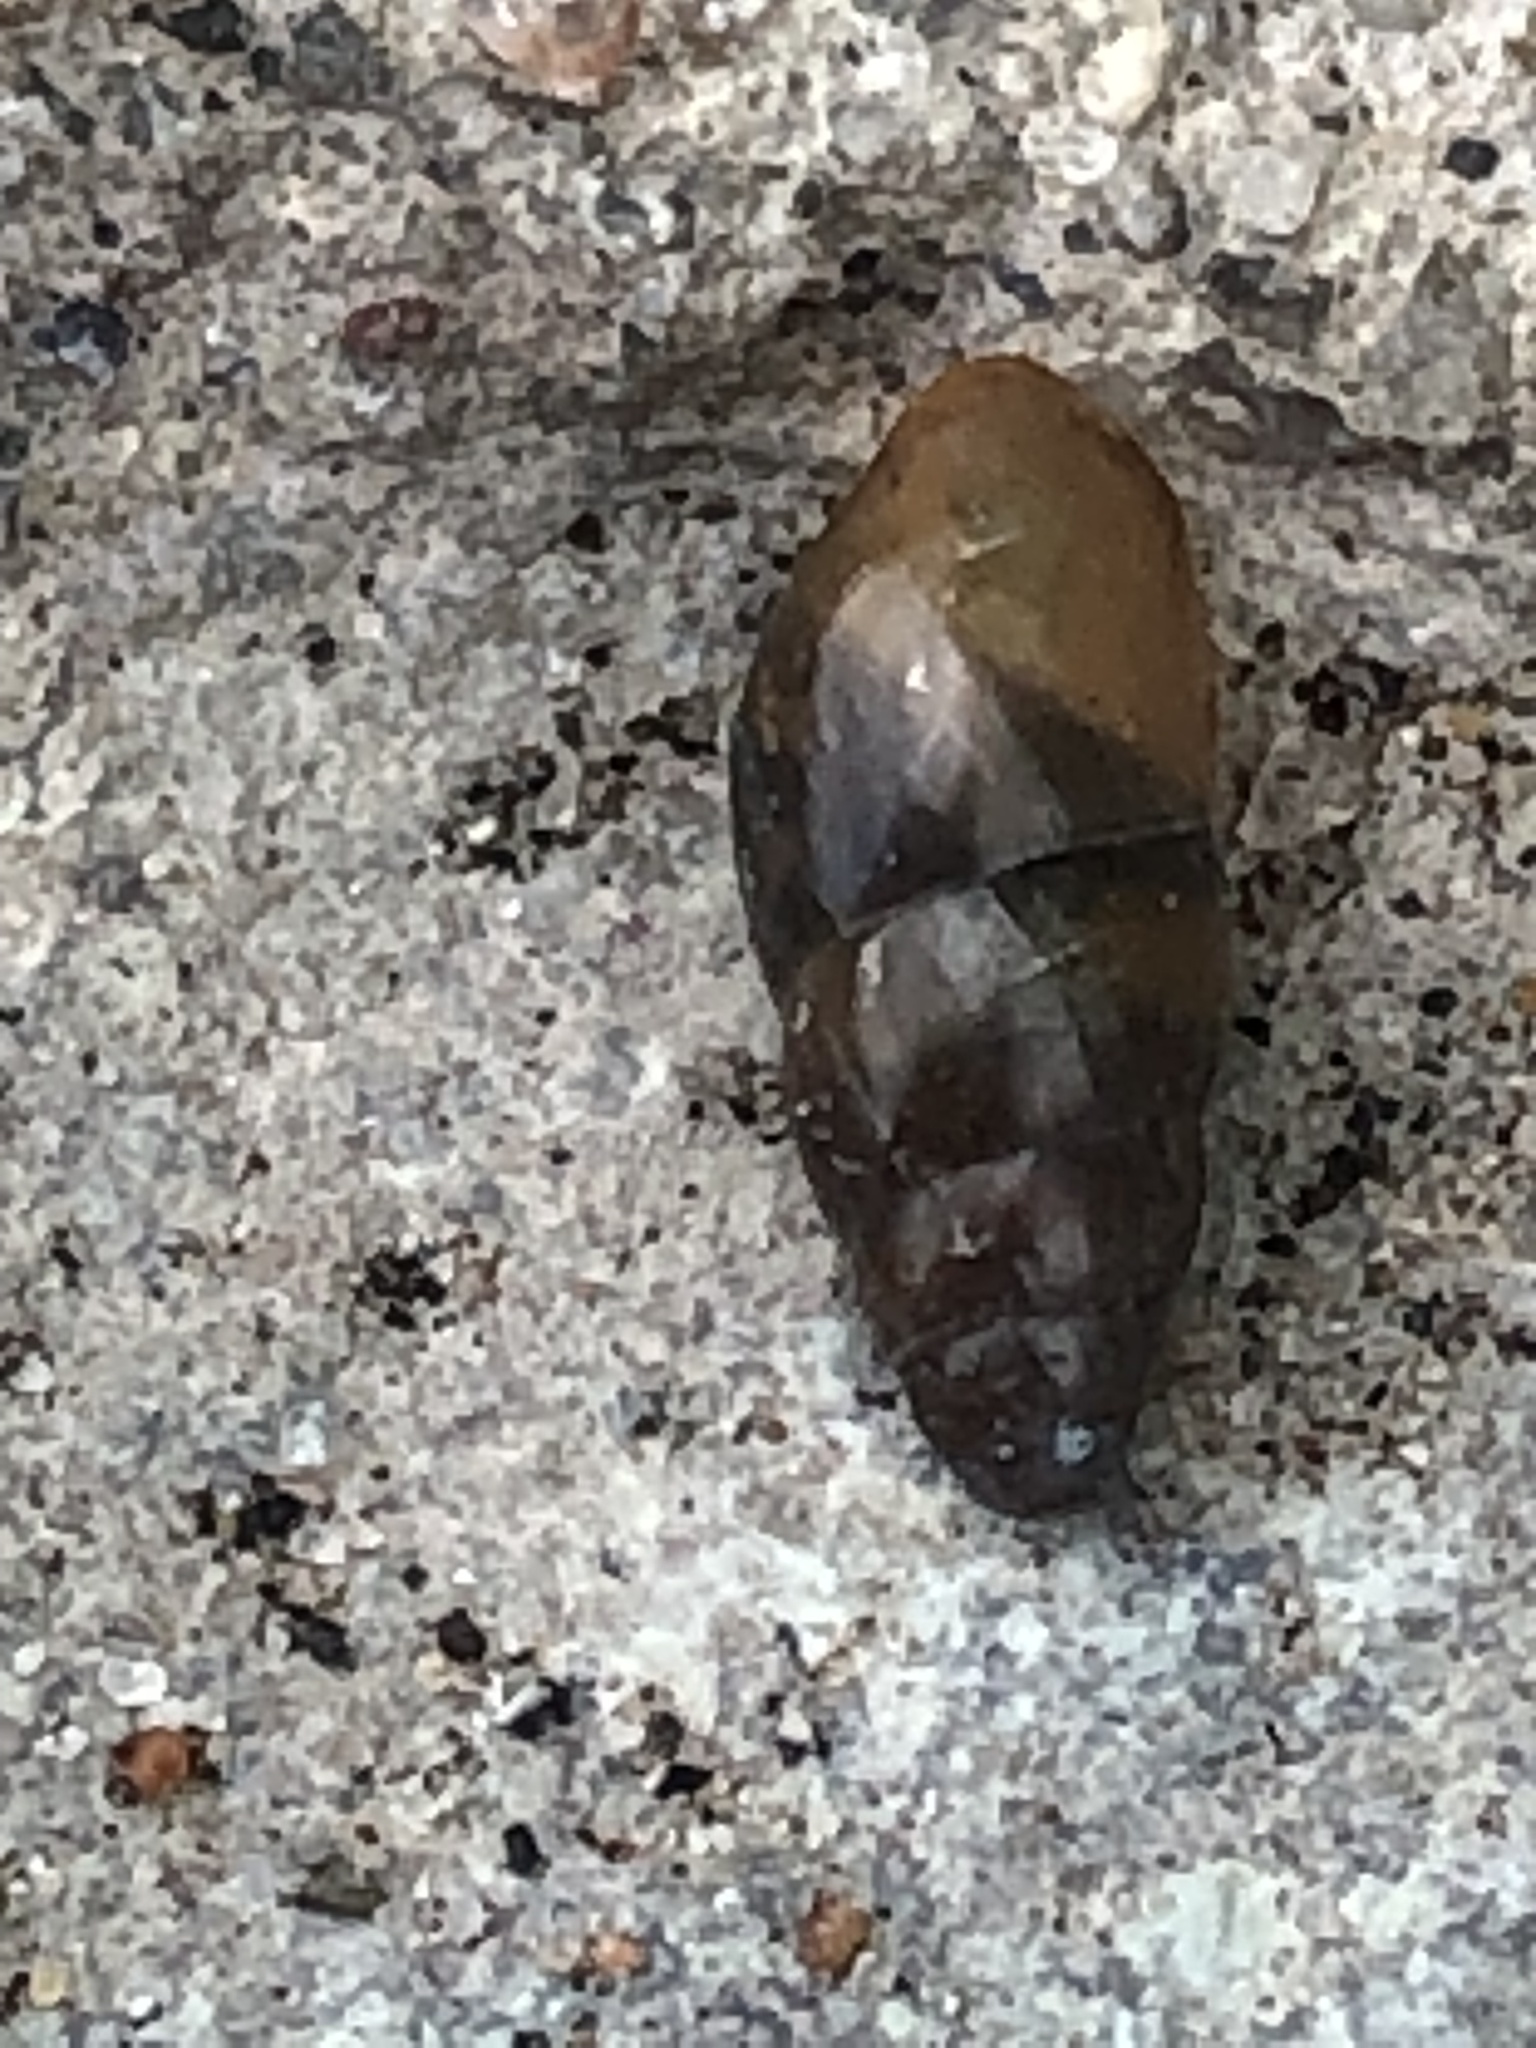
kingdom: Animalia
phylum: Mollusca
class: Gastropoda
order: Stylommatophora
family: Cochlicopidae
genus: Cochlicopa
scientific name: Cochlicopa lubrica
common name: Glossy pillar snail
